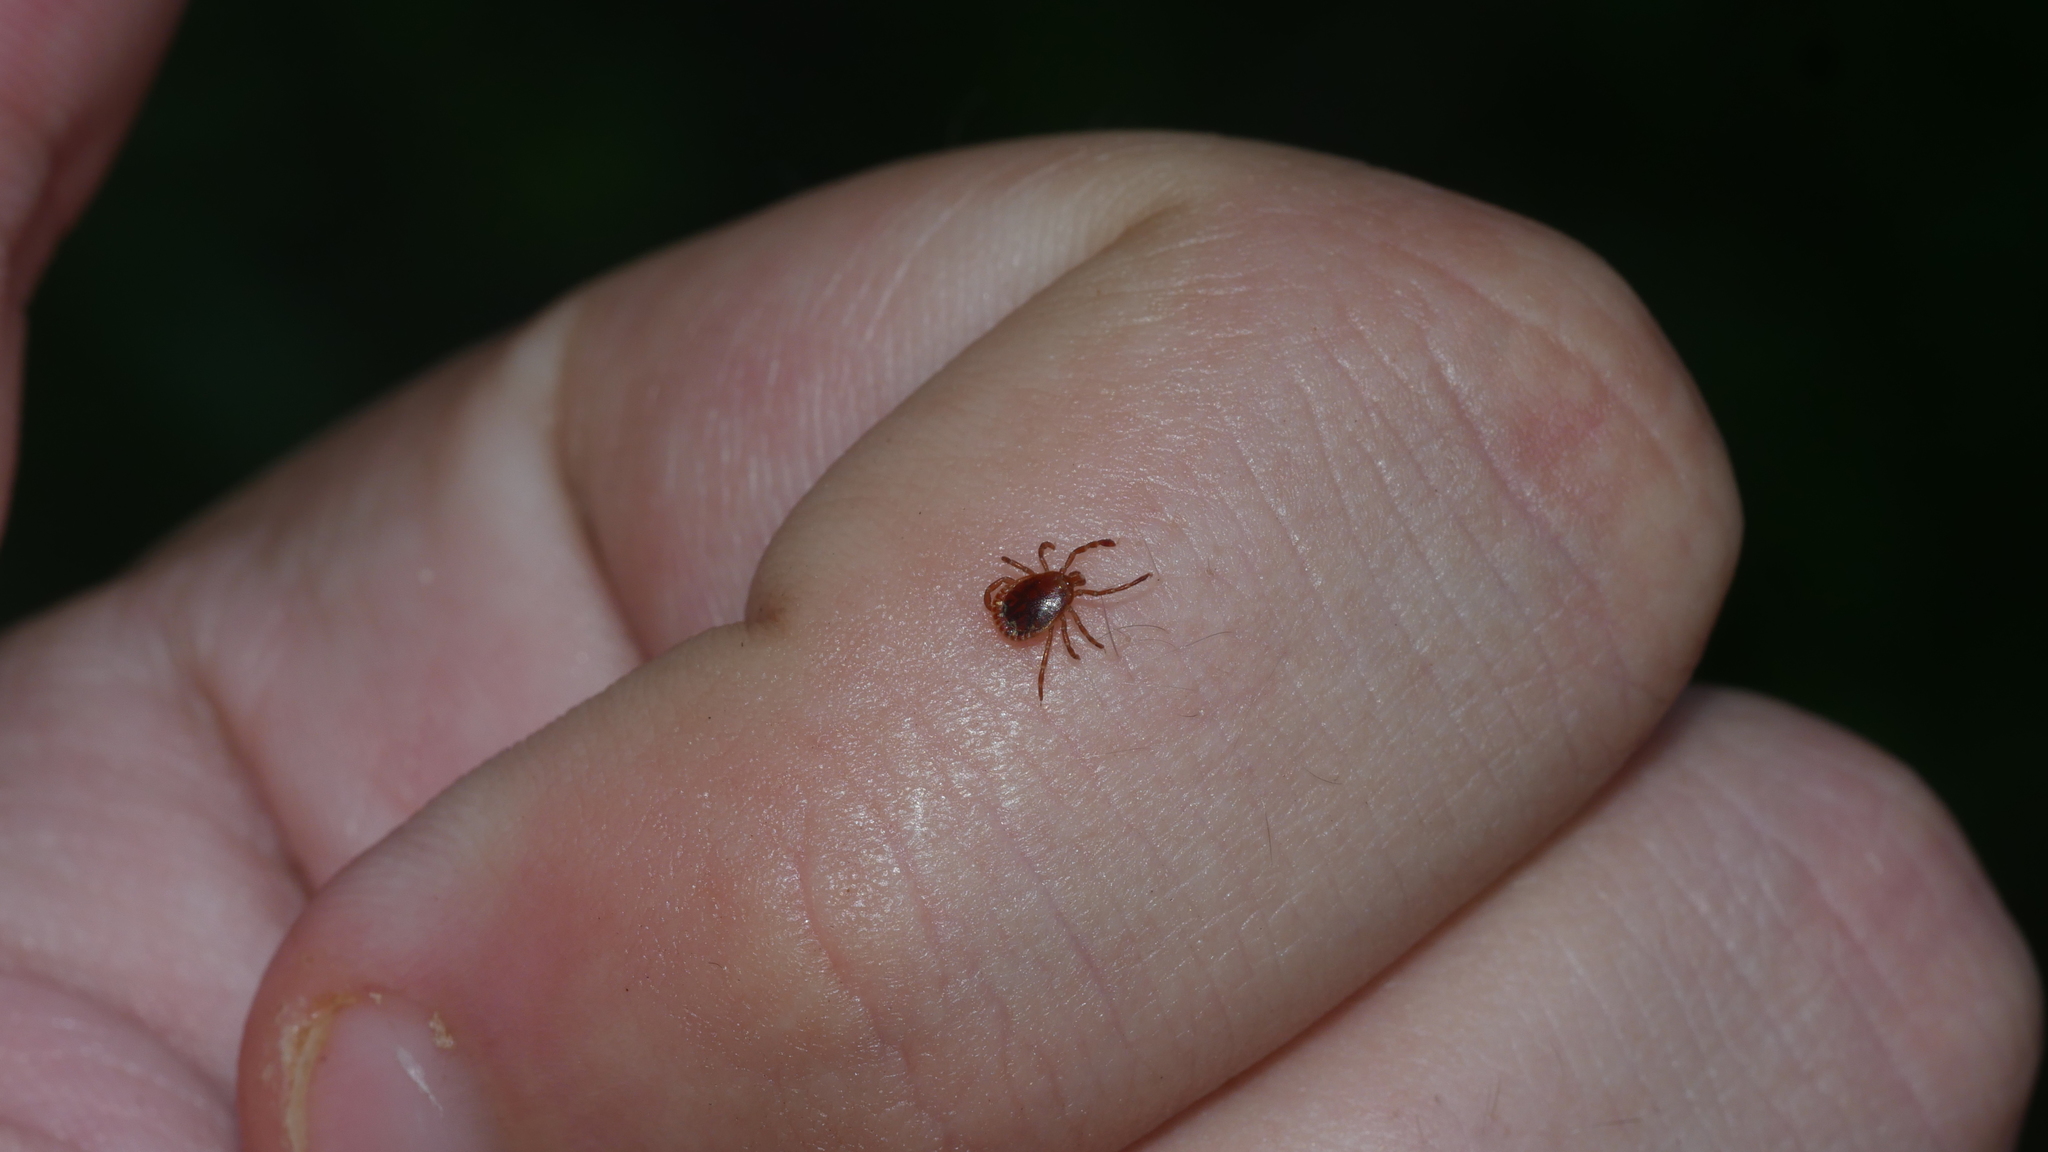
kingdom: Animalia
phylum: Arthropoda
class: Arachnida
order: Ixodida
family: Ixodidae
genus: Amblyomma
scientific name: Amblyomma americanum
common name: Lone star tick
